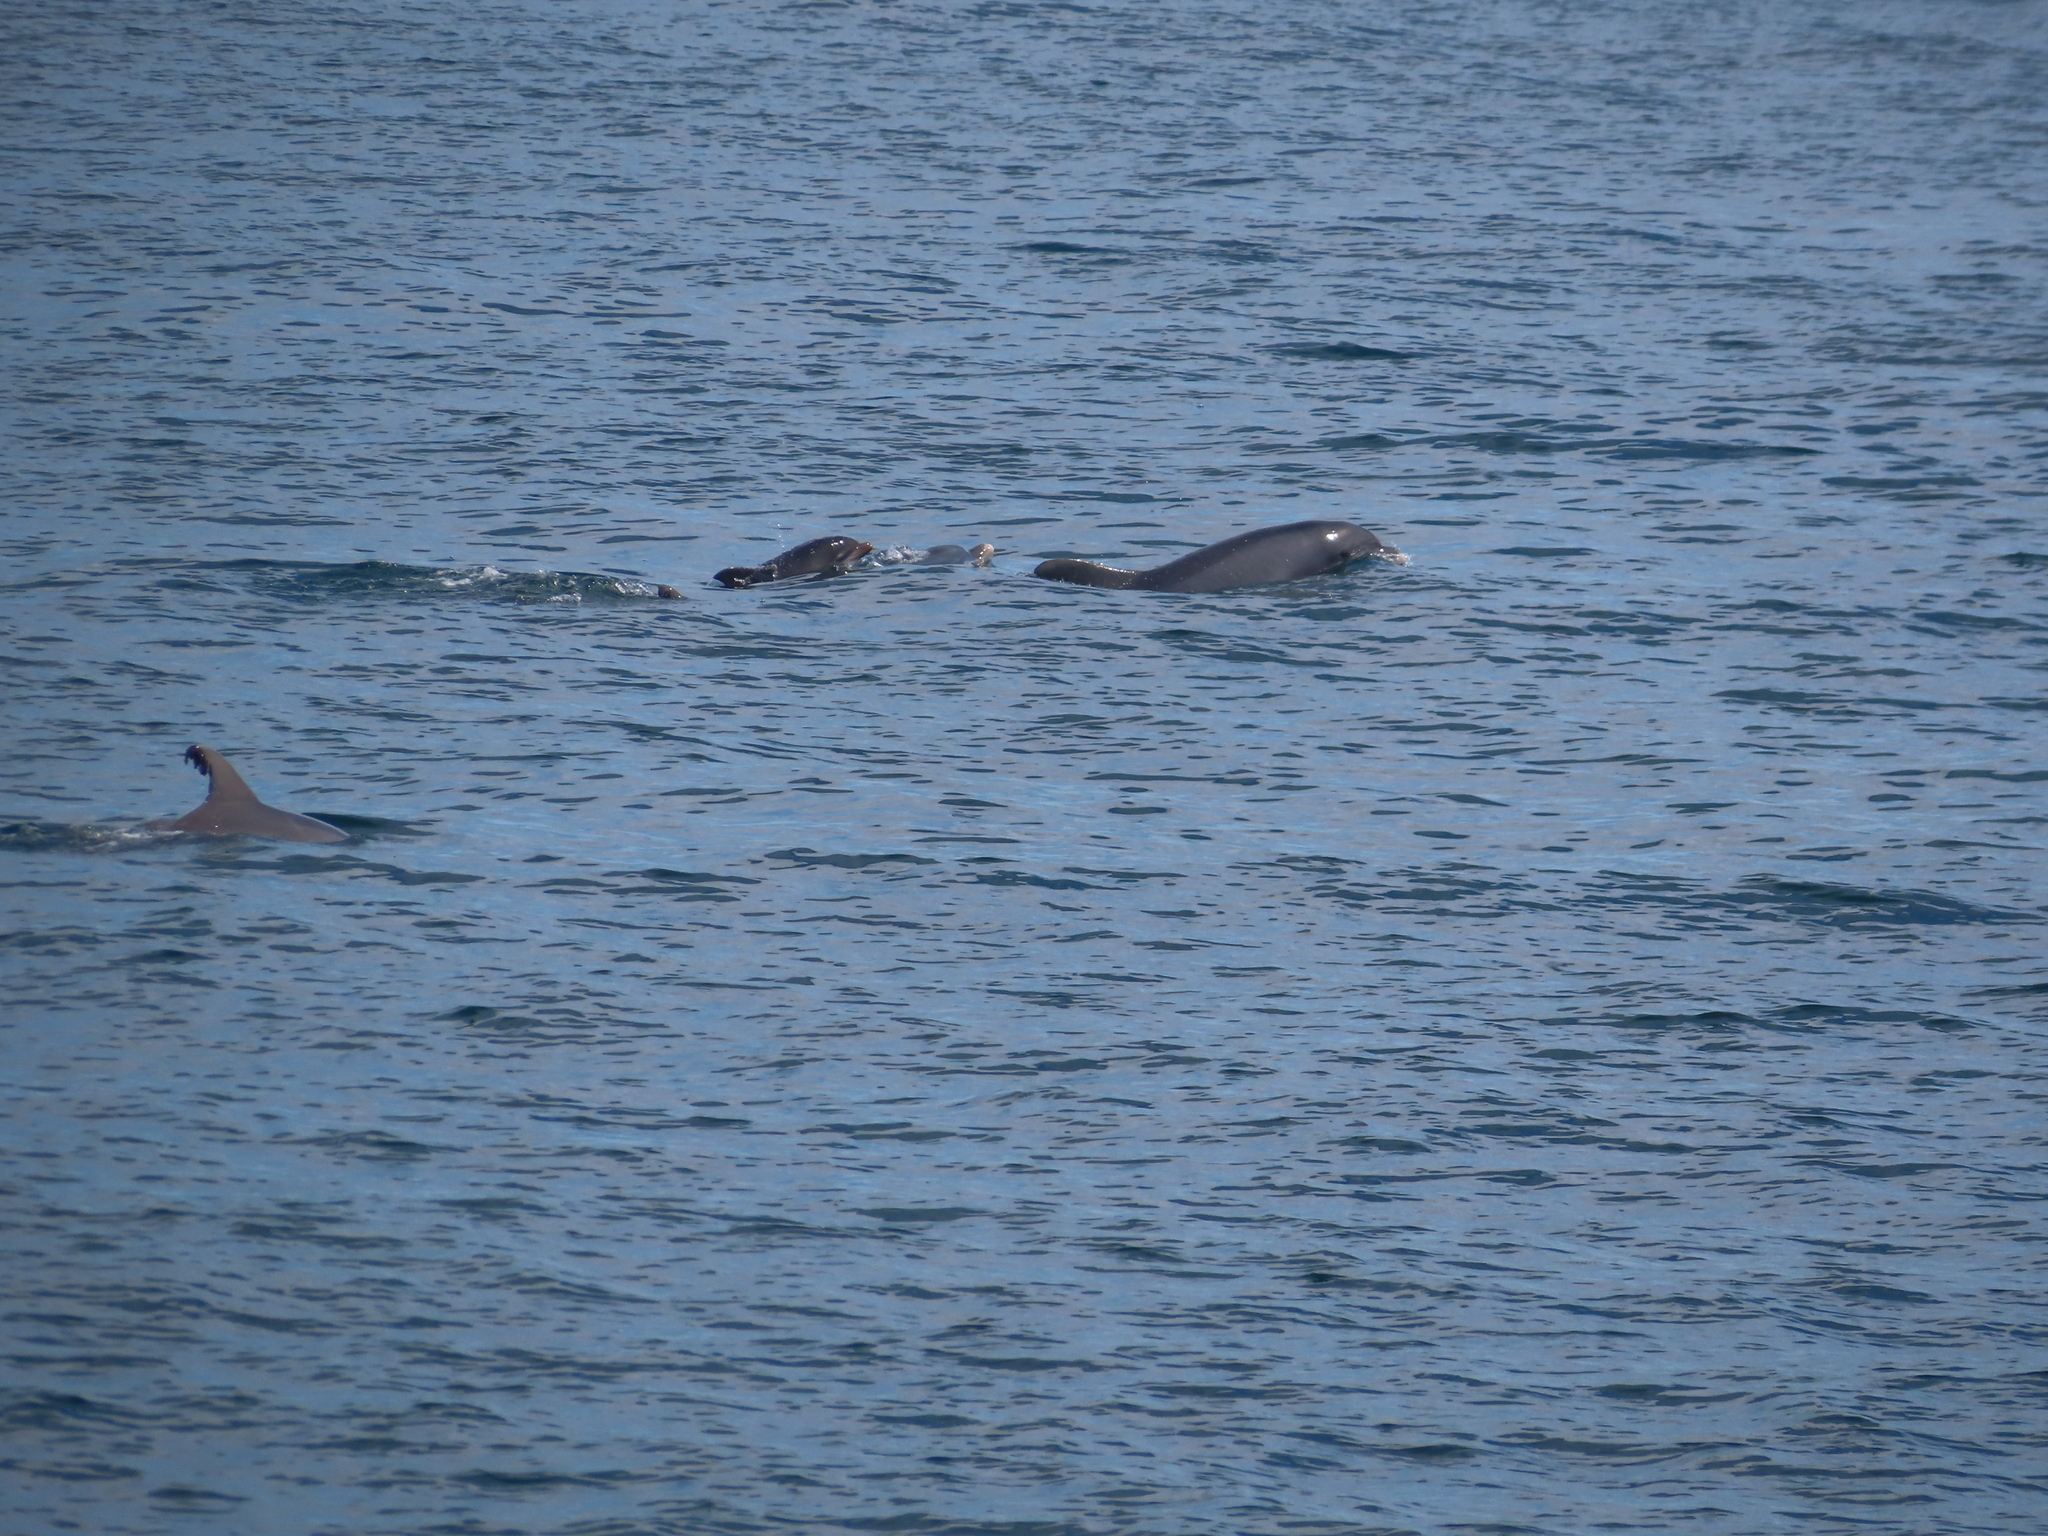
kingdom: Animalia
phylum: Chordata
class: Mammalia
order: Cetacea
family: Delphinidae
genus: Tursiops
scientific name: Tursiops truncatus
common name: Bottlenose dolphin
